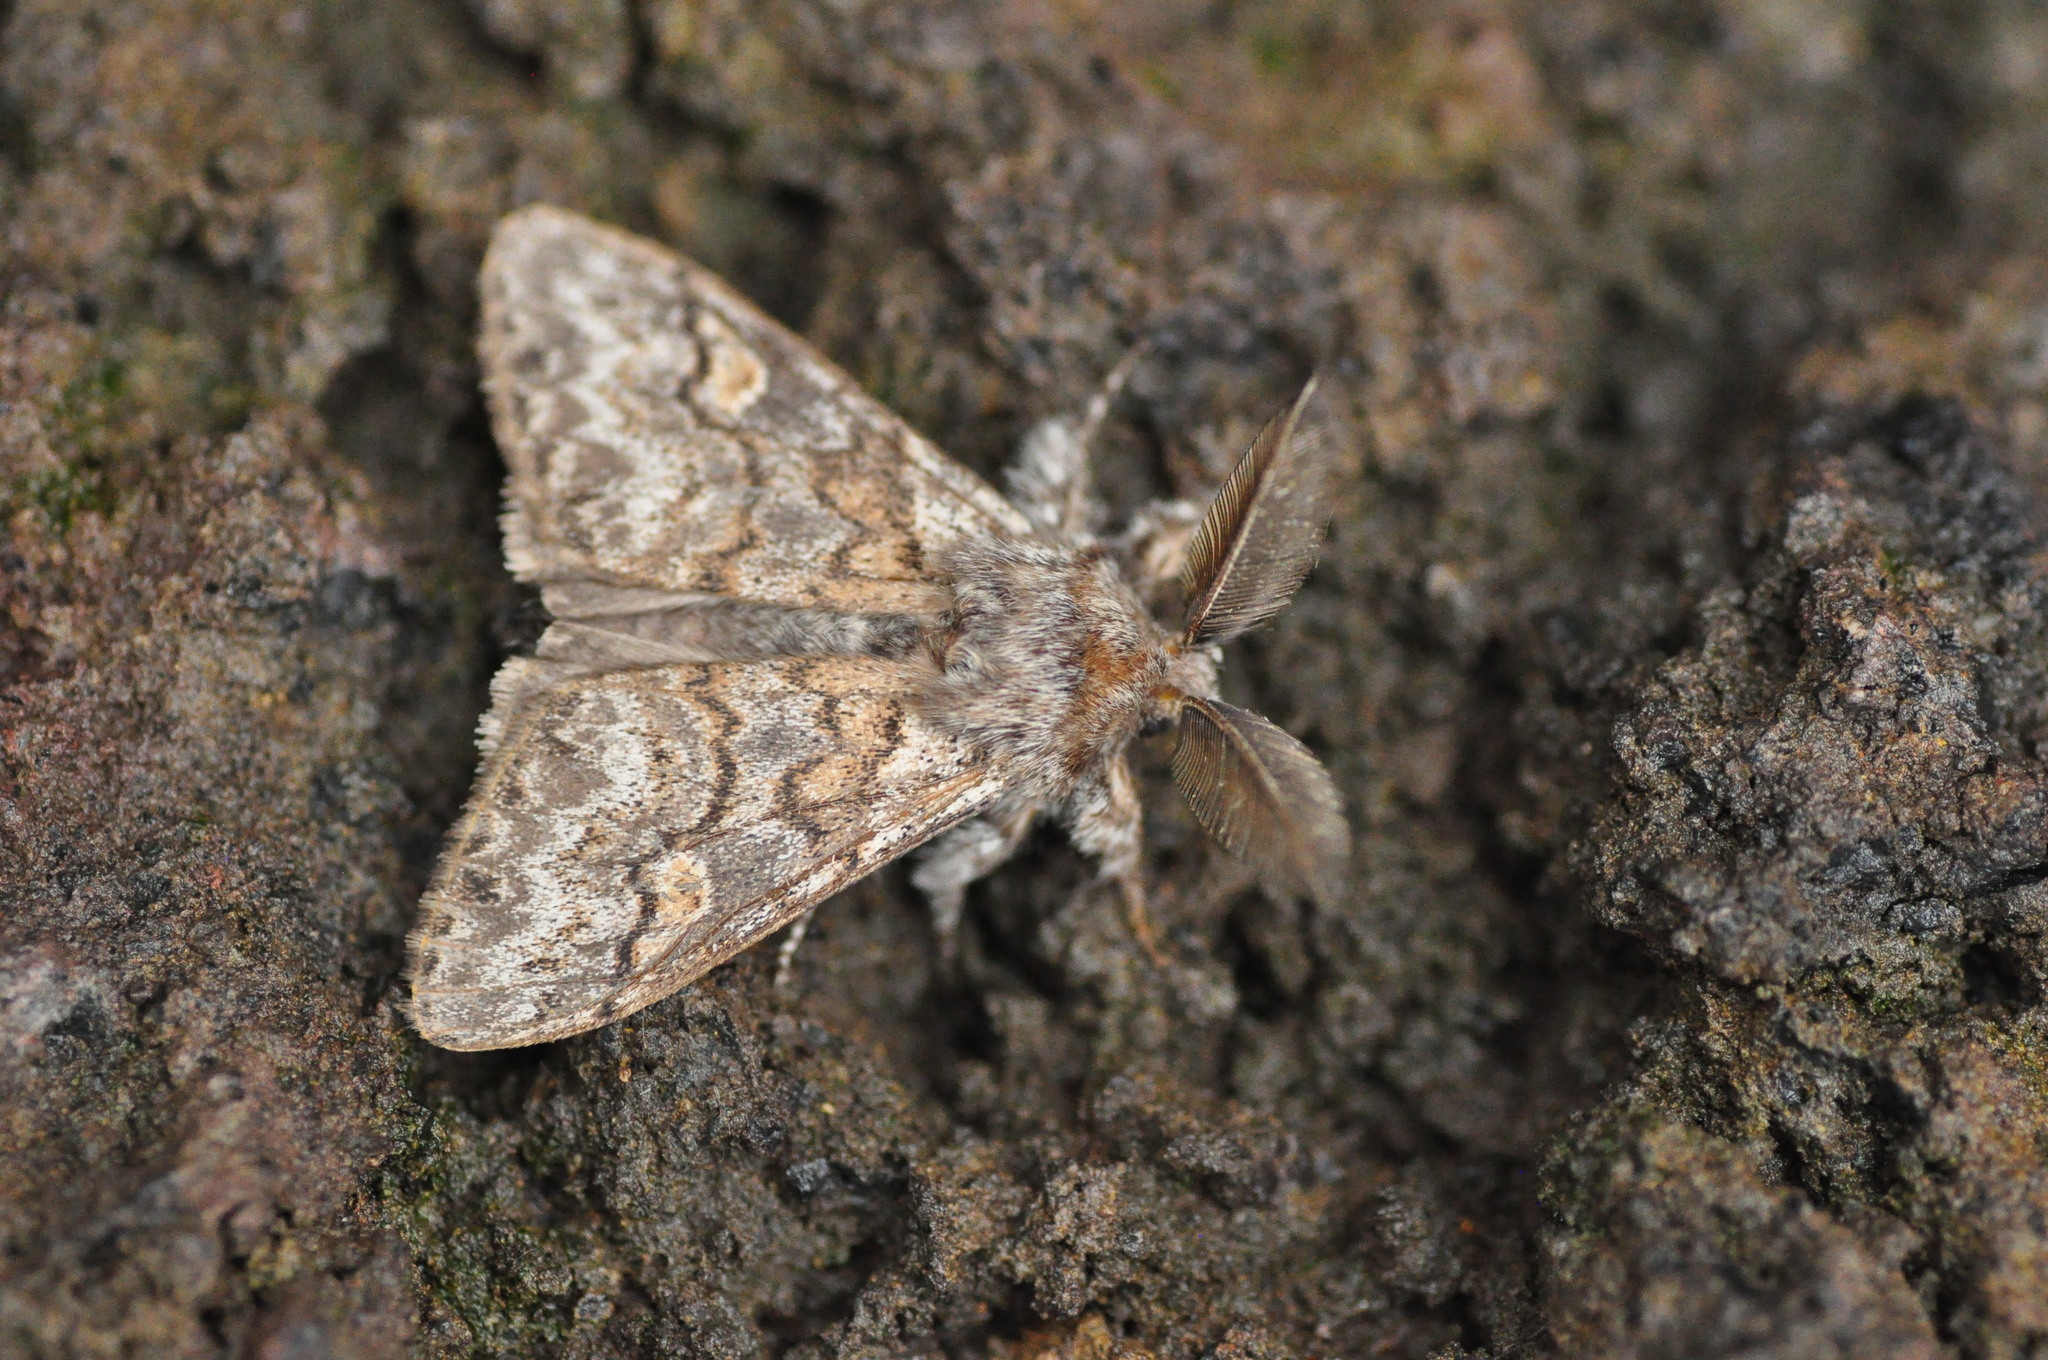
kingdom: Animalia
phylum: Arthropoda
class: Insecta
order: Lepidoptera
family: Erebidae
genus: Calliteara
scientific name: Calliteara
